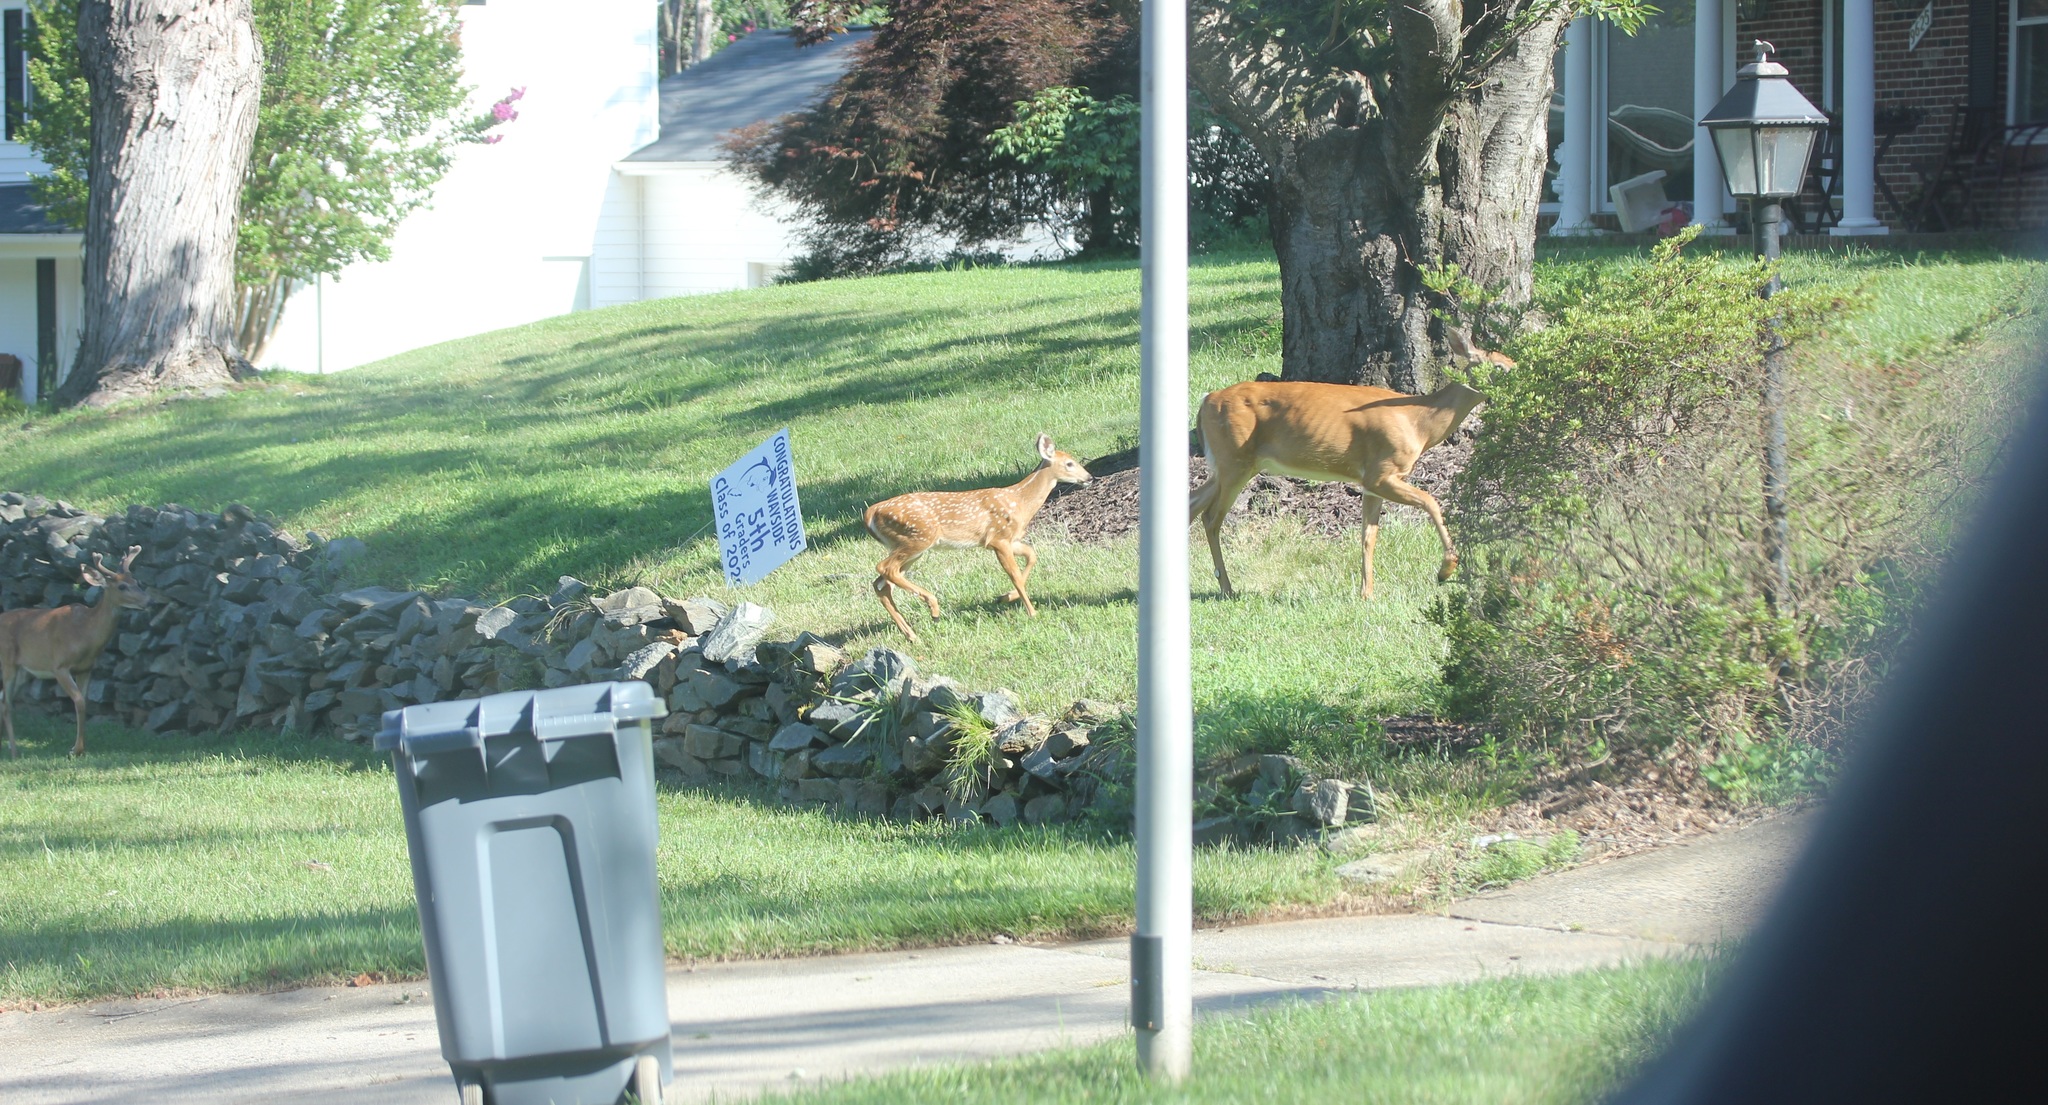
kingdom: Animalia
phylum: Chordata
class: Mammalia
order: Artiodactyla
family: Cervidae
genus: Odocoileus
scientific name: Odocoileus virginianus
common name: White-tailed deer
